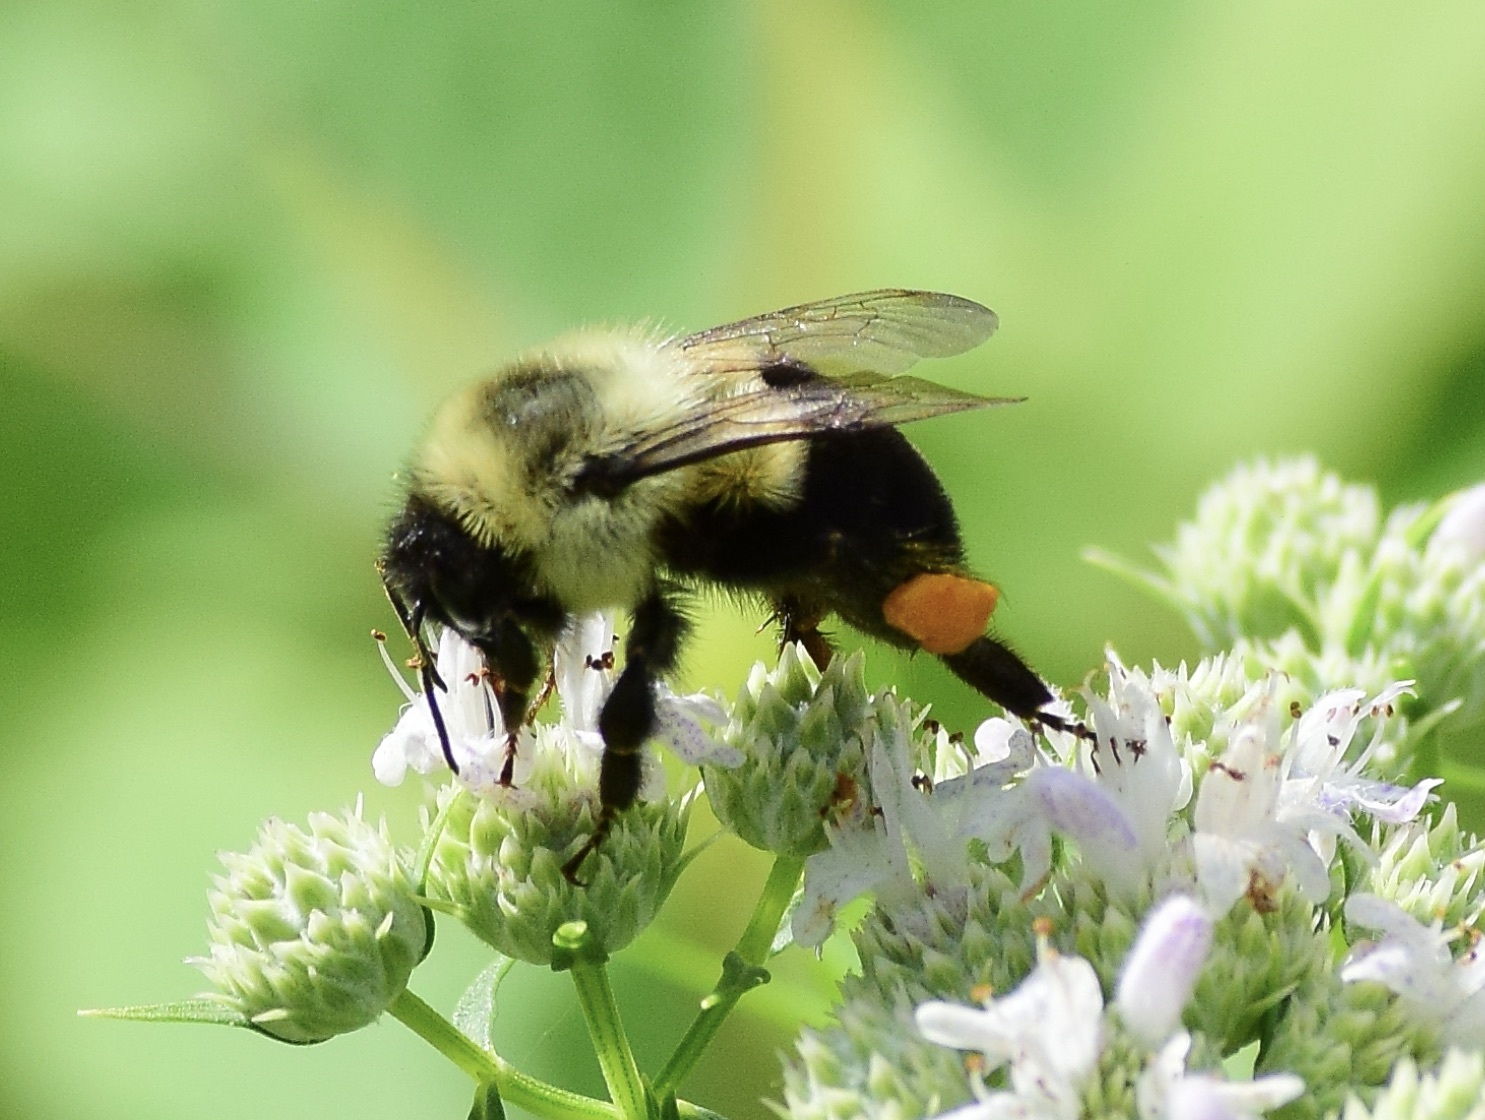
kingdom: Animalia
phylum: Arthropoda
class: Insecta
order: Hymenoptera
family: Apidae
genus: Bombus
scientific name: Bombus impatiens
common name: Common eastern bumble bee
